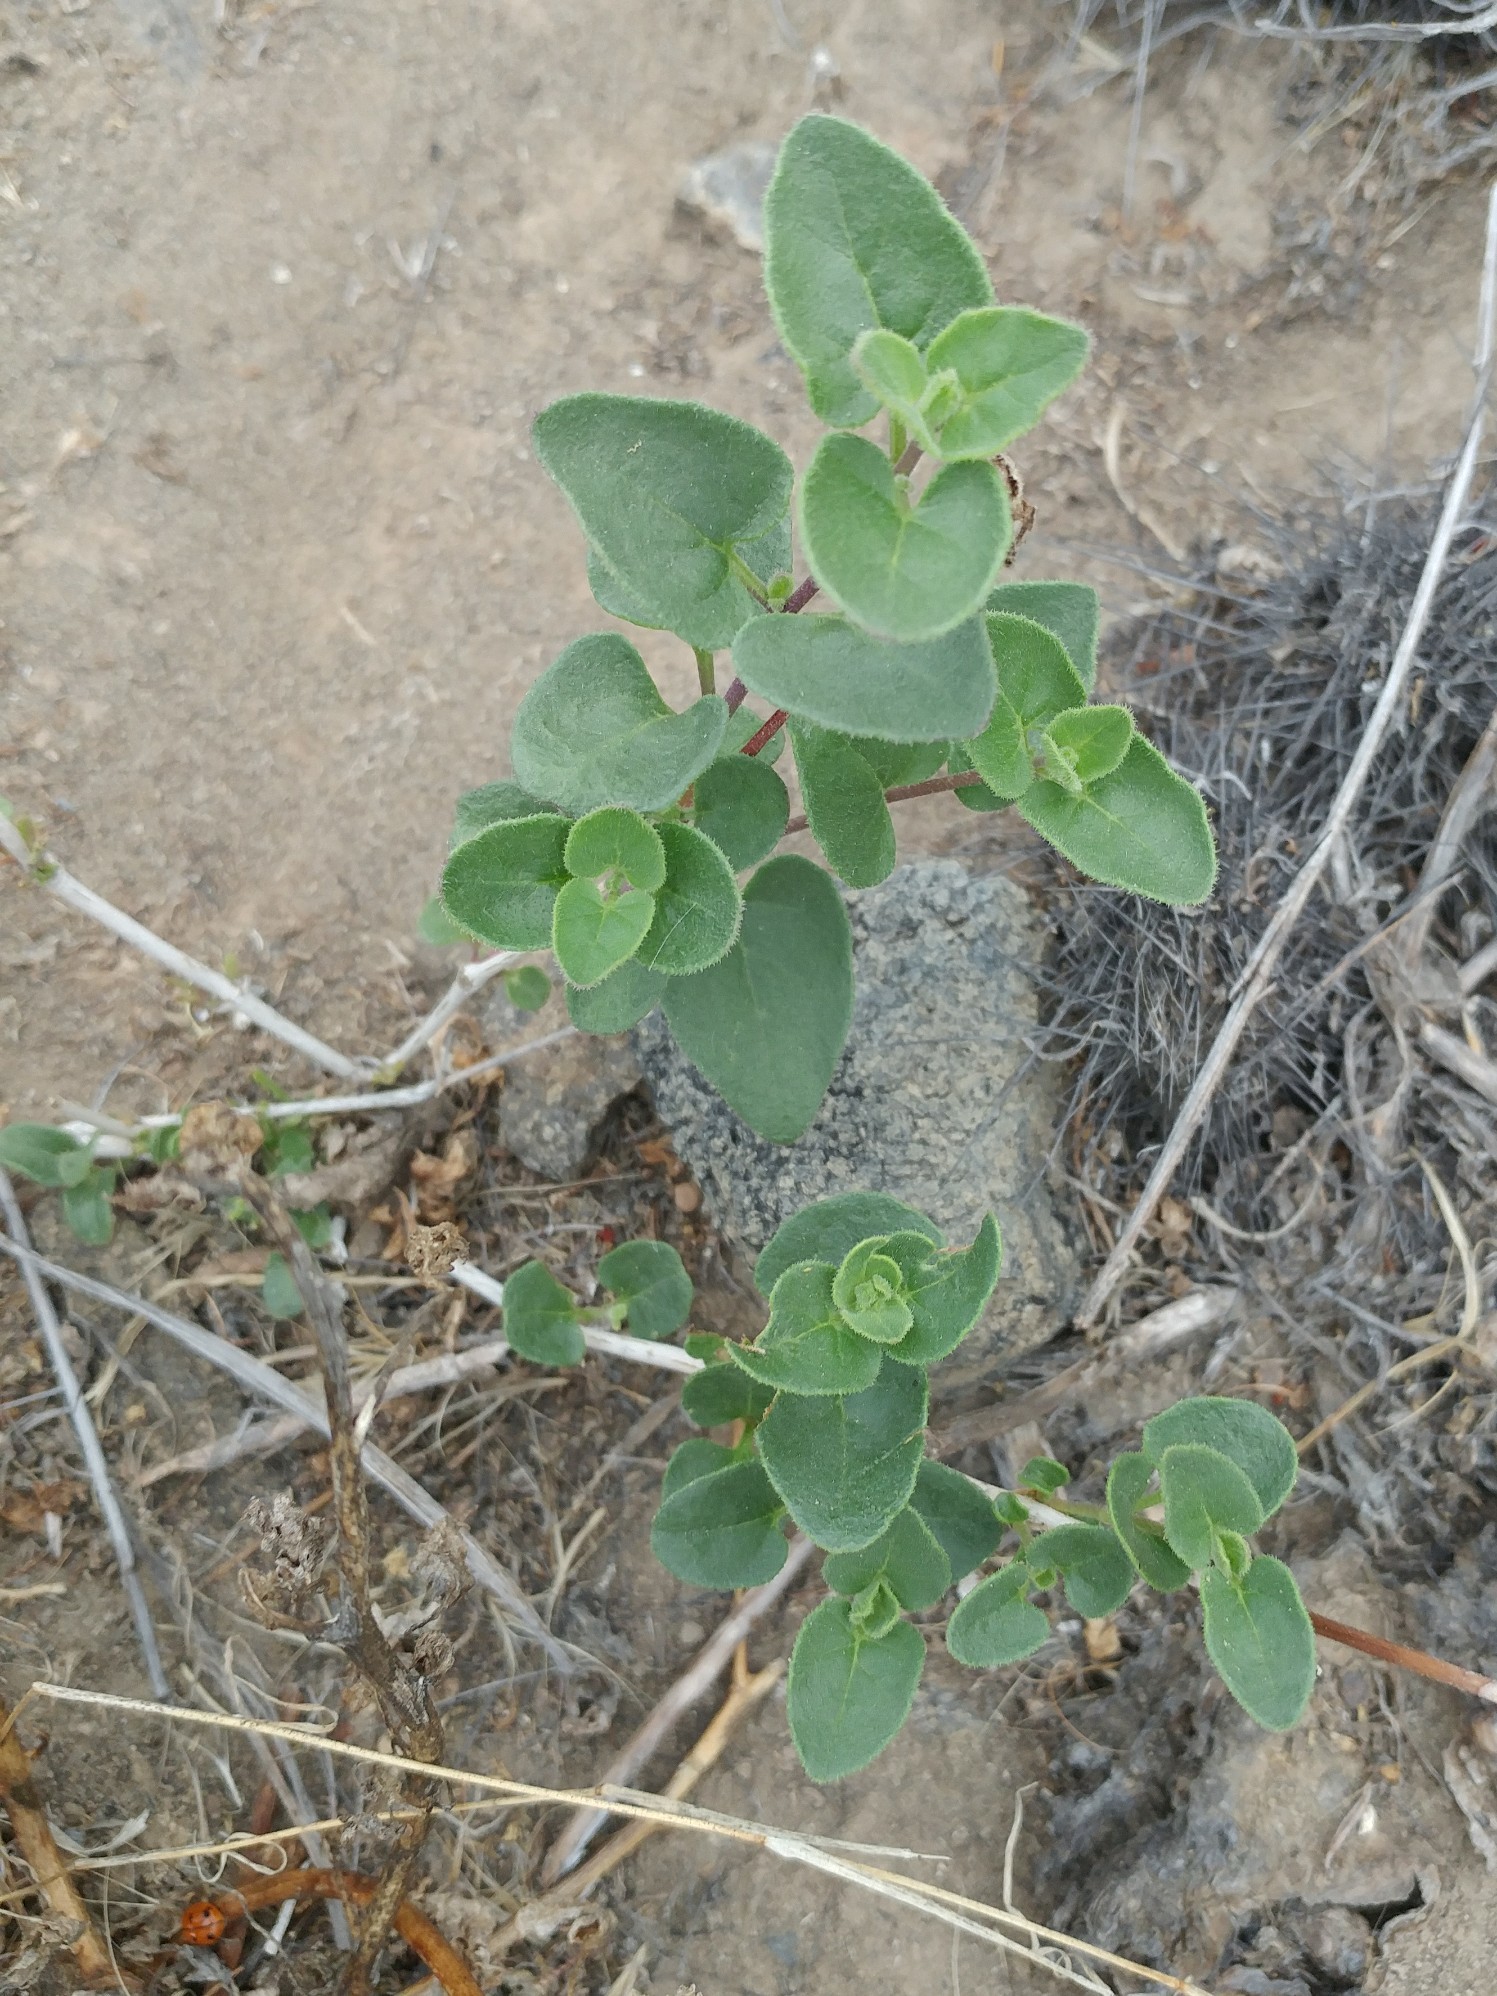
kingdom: Plantae
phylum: Tracheophyta
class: Magnoliopsida
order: Caryophyllales
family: Nyctaginaceae
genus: Mirabilis
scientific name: Mirabilis laevis
